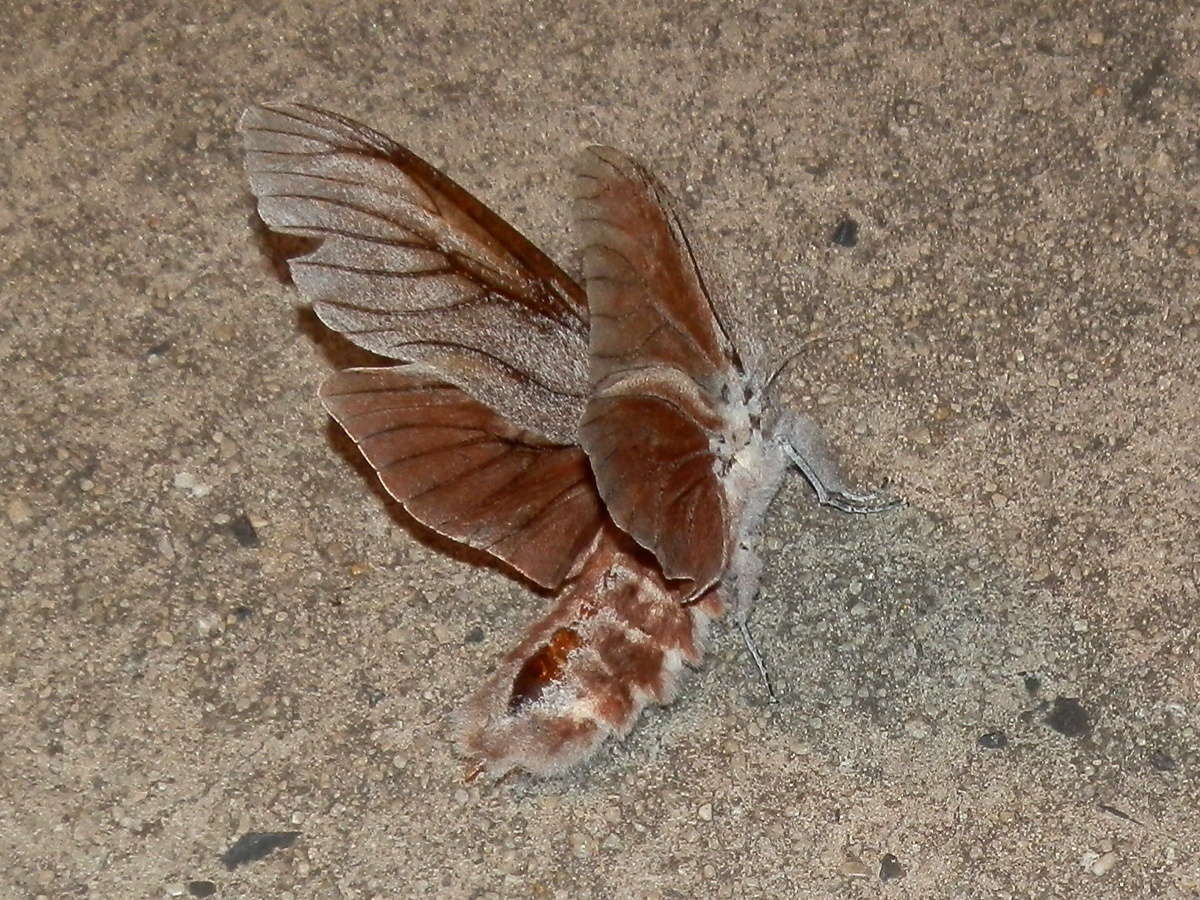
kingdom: Animalia
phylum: Arthropoda
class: Insecta
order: Lepidoptera
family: Cossidae
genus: Endoxyla
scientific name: Endoxyla magnifica
